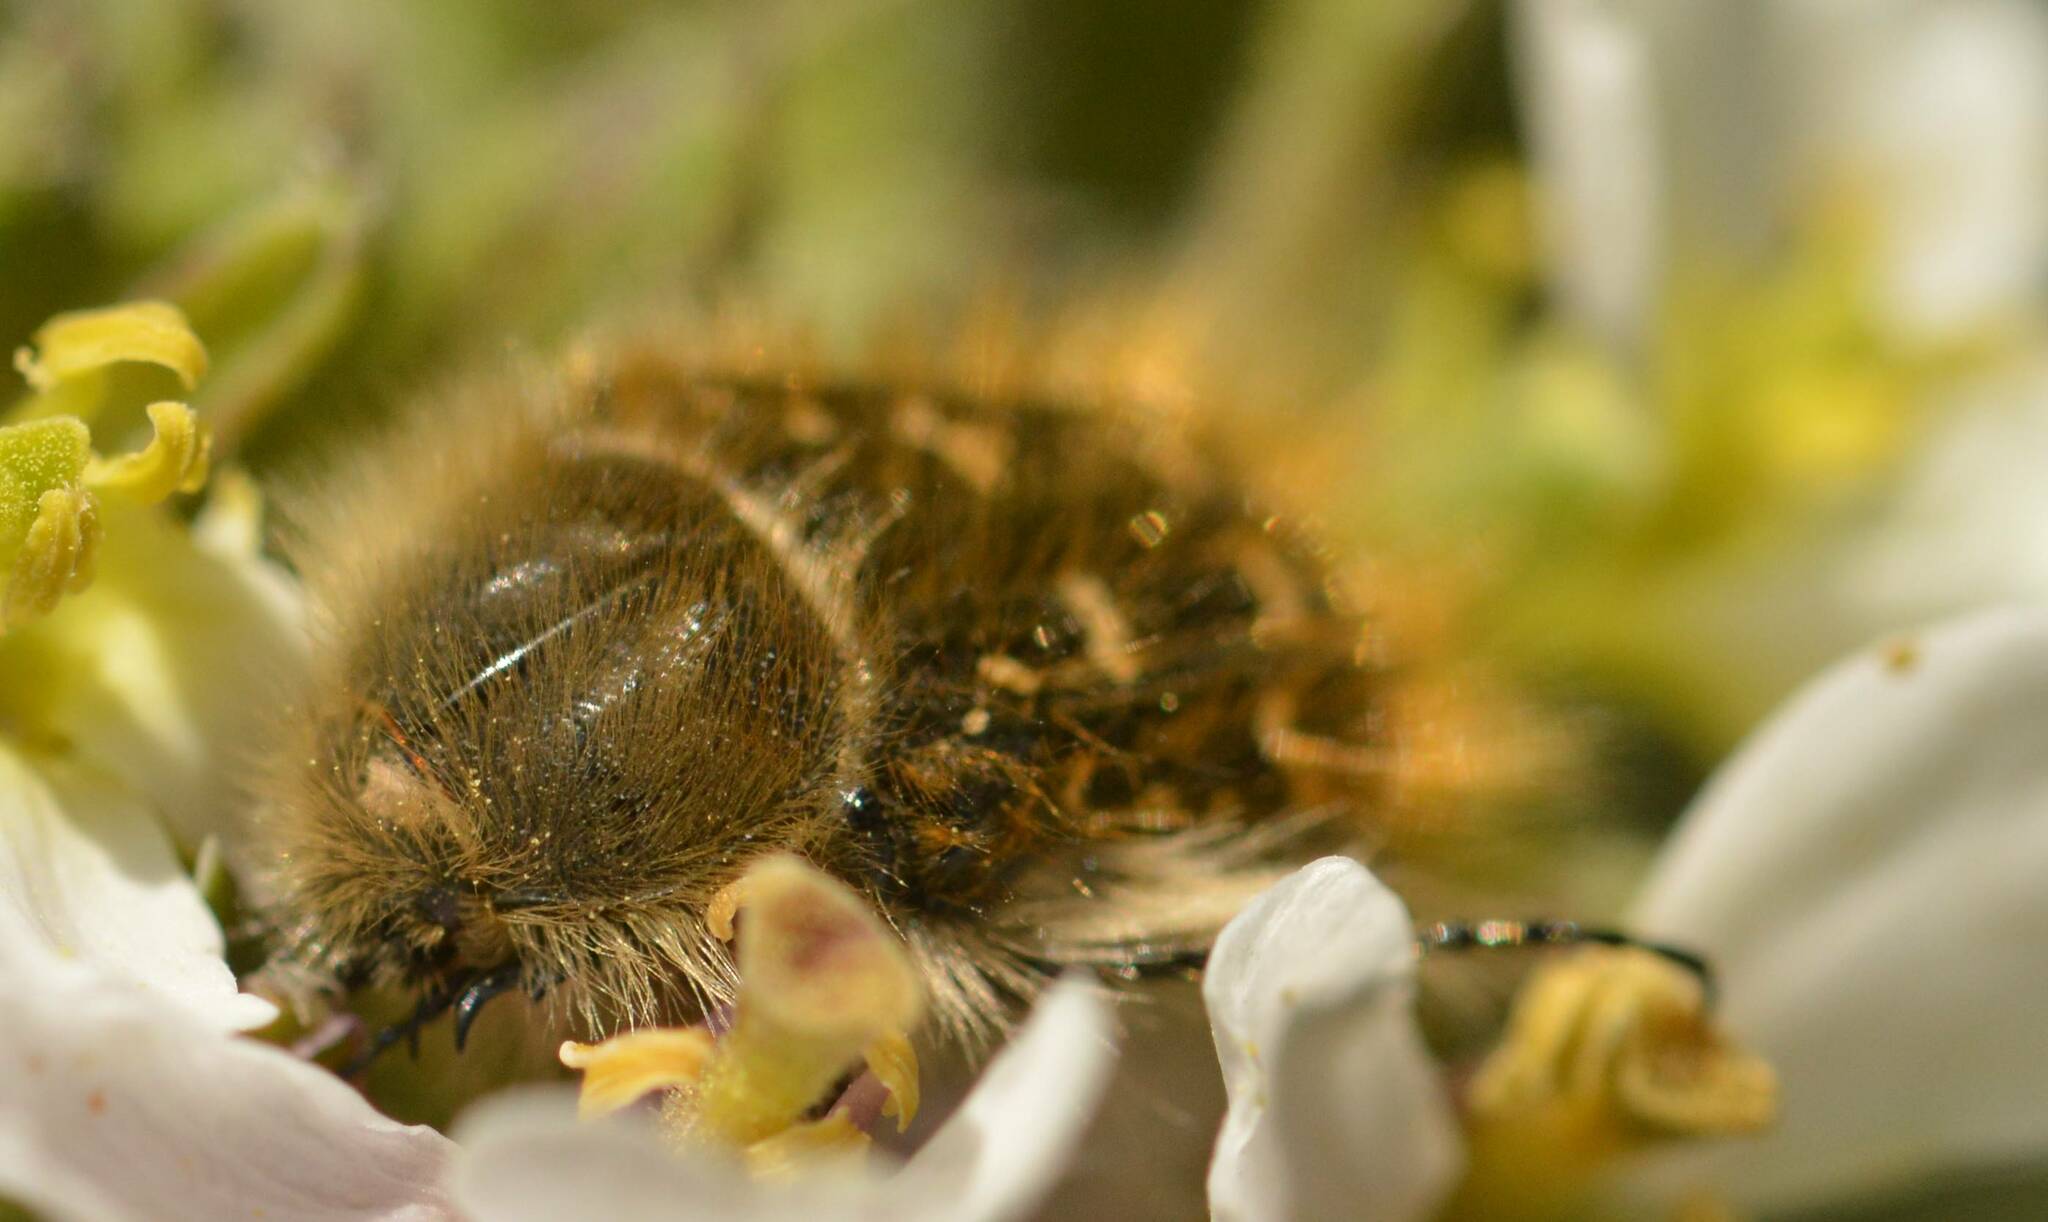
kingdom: Animalia
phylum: Arthropoda
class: Insecta
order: Coleoptera
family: Scarabaeidae
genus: Tropinota
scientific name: Tropinota squalida
